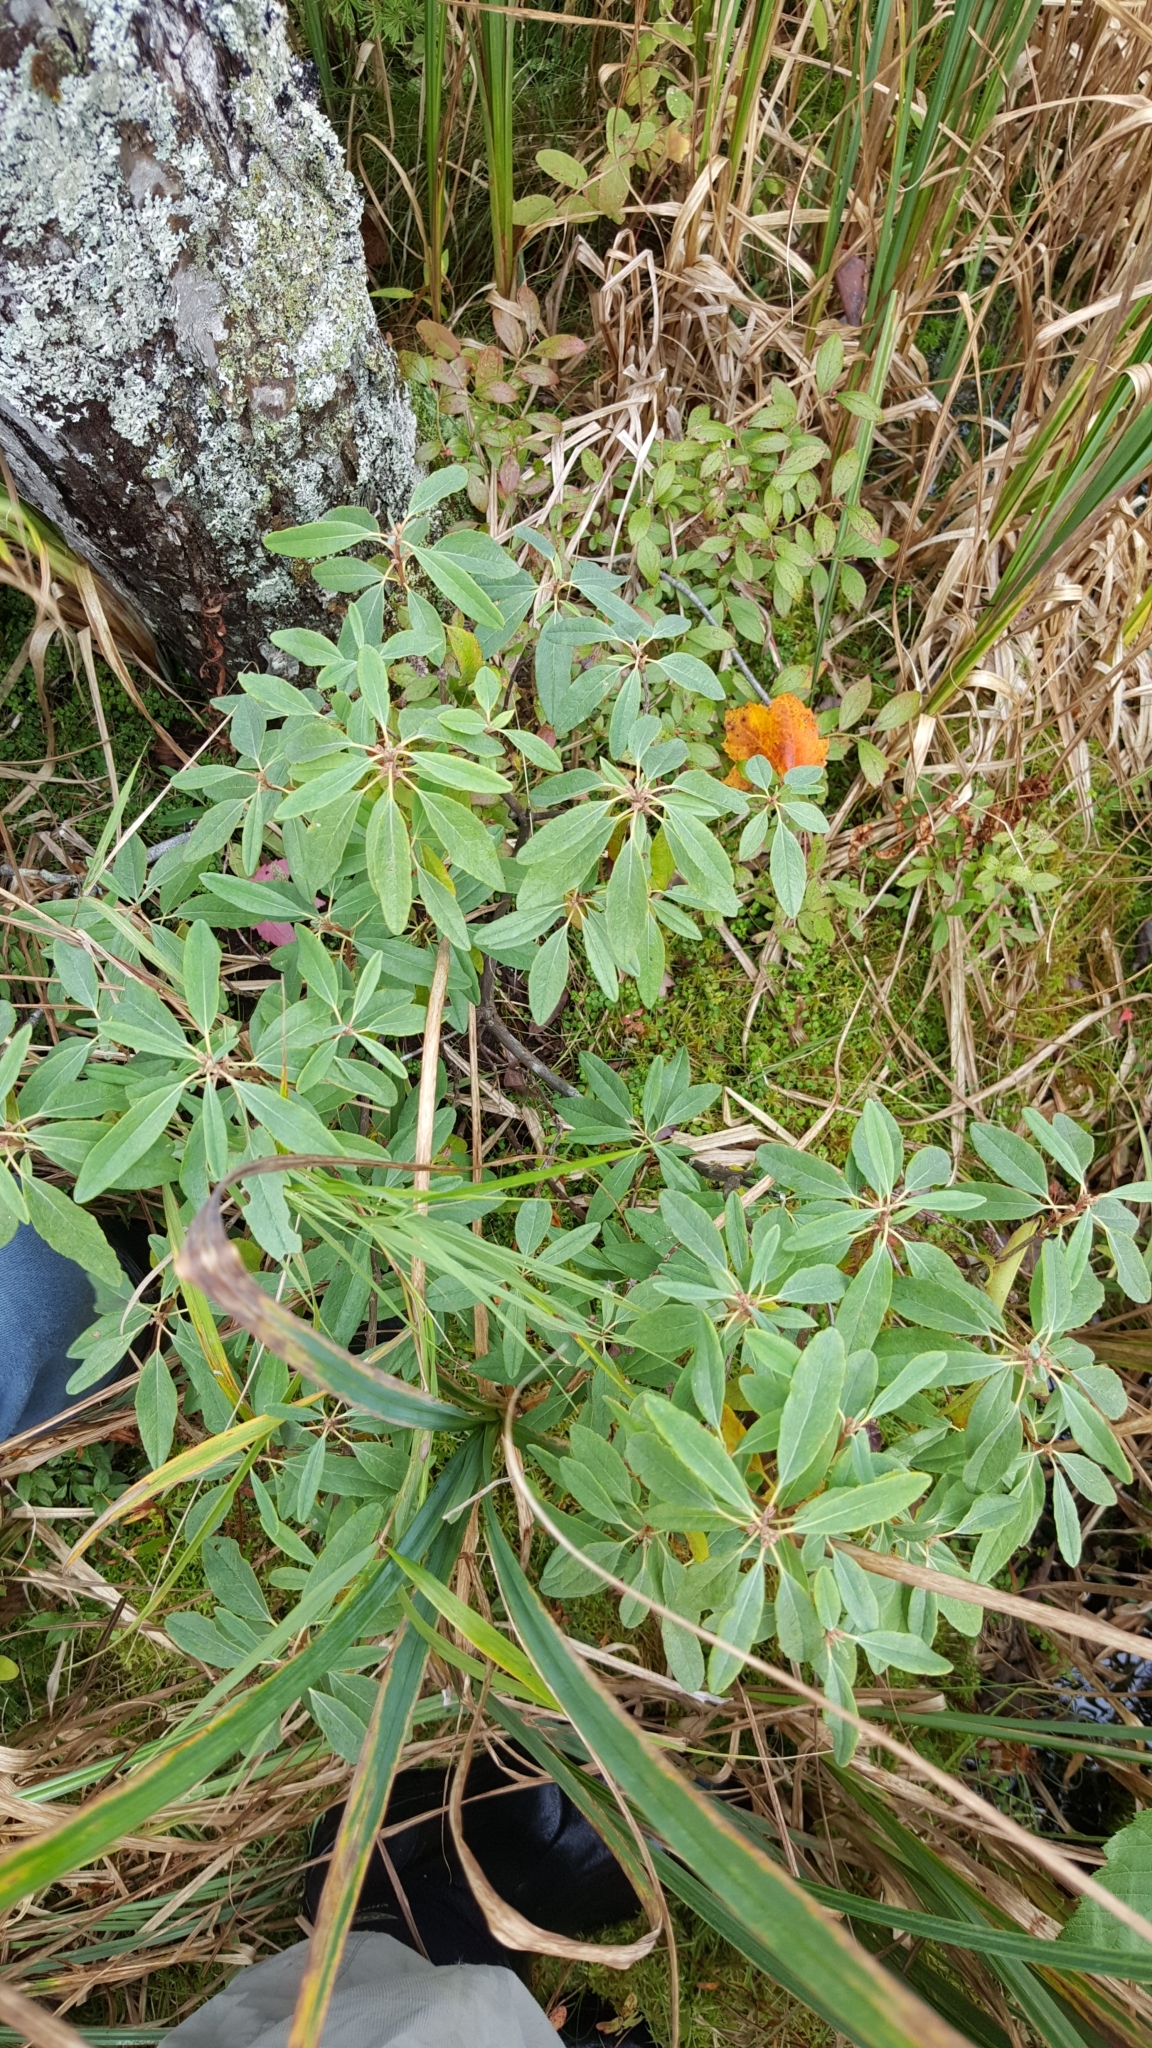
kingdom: Plantae
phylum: Tracheophyta
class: Magnoliopsida
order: Ericales
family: Ericaceae
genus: Kalmia
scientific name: Kalmia angustifolia
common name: Sheep-laurel
